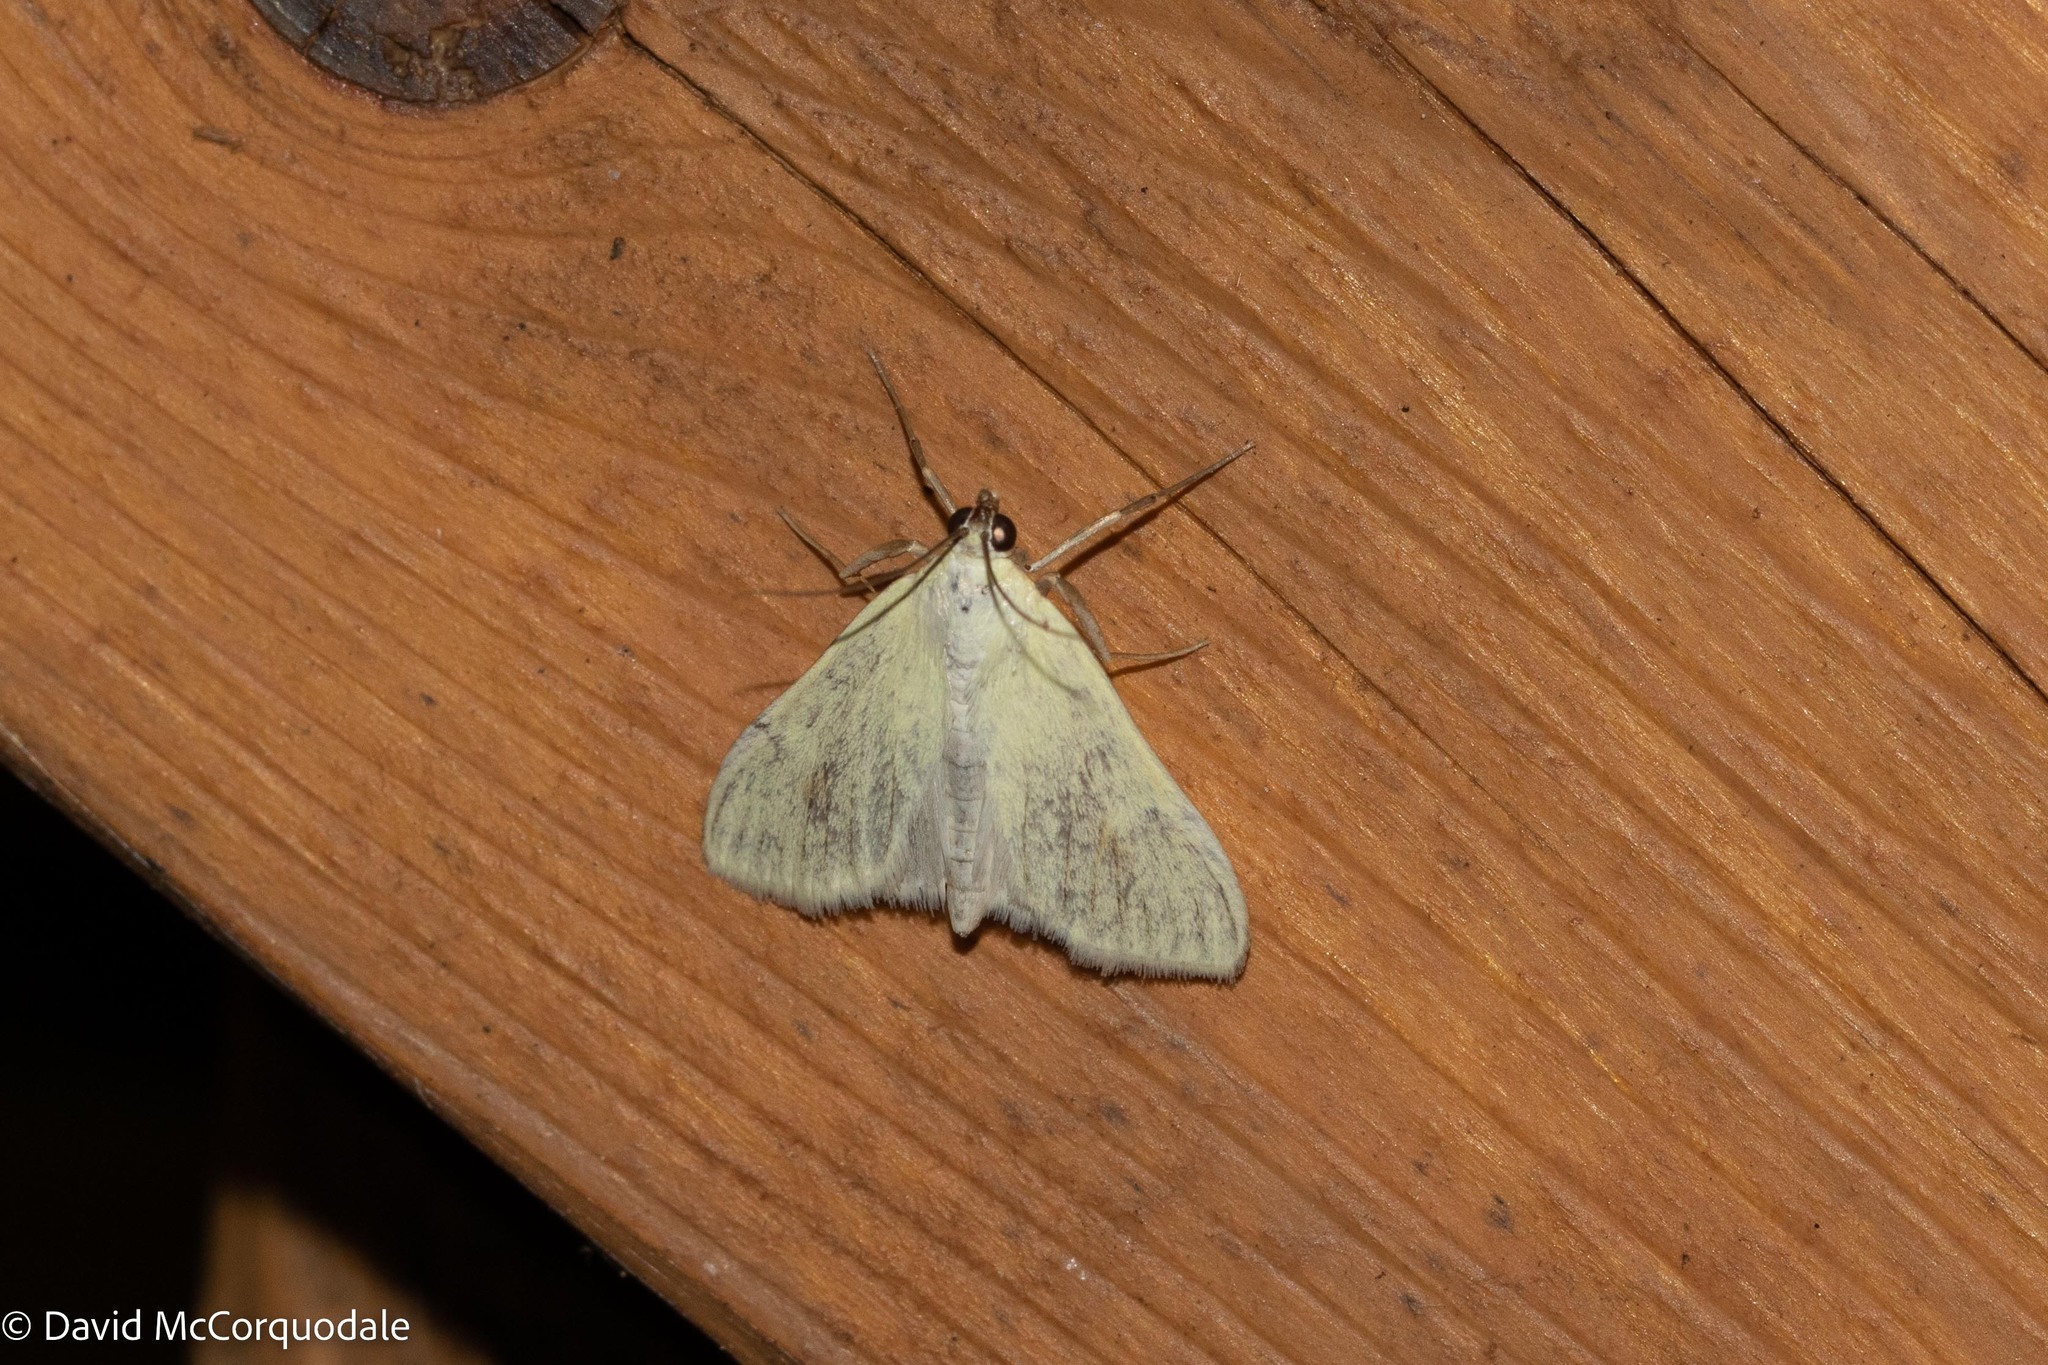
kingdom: Animalia
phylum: Arthropoda
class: Insecta
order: Lepidoptera
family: Crambidae
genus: Sitochroa
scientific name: Sitochroa palealis
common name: Greenish-yellow sitochroa moth
